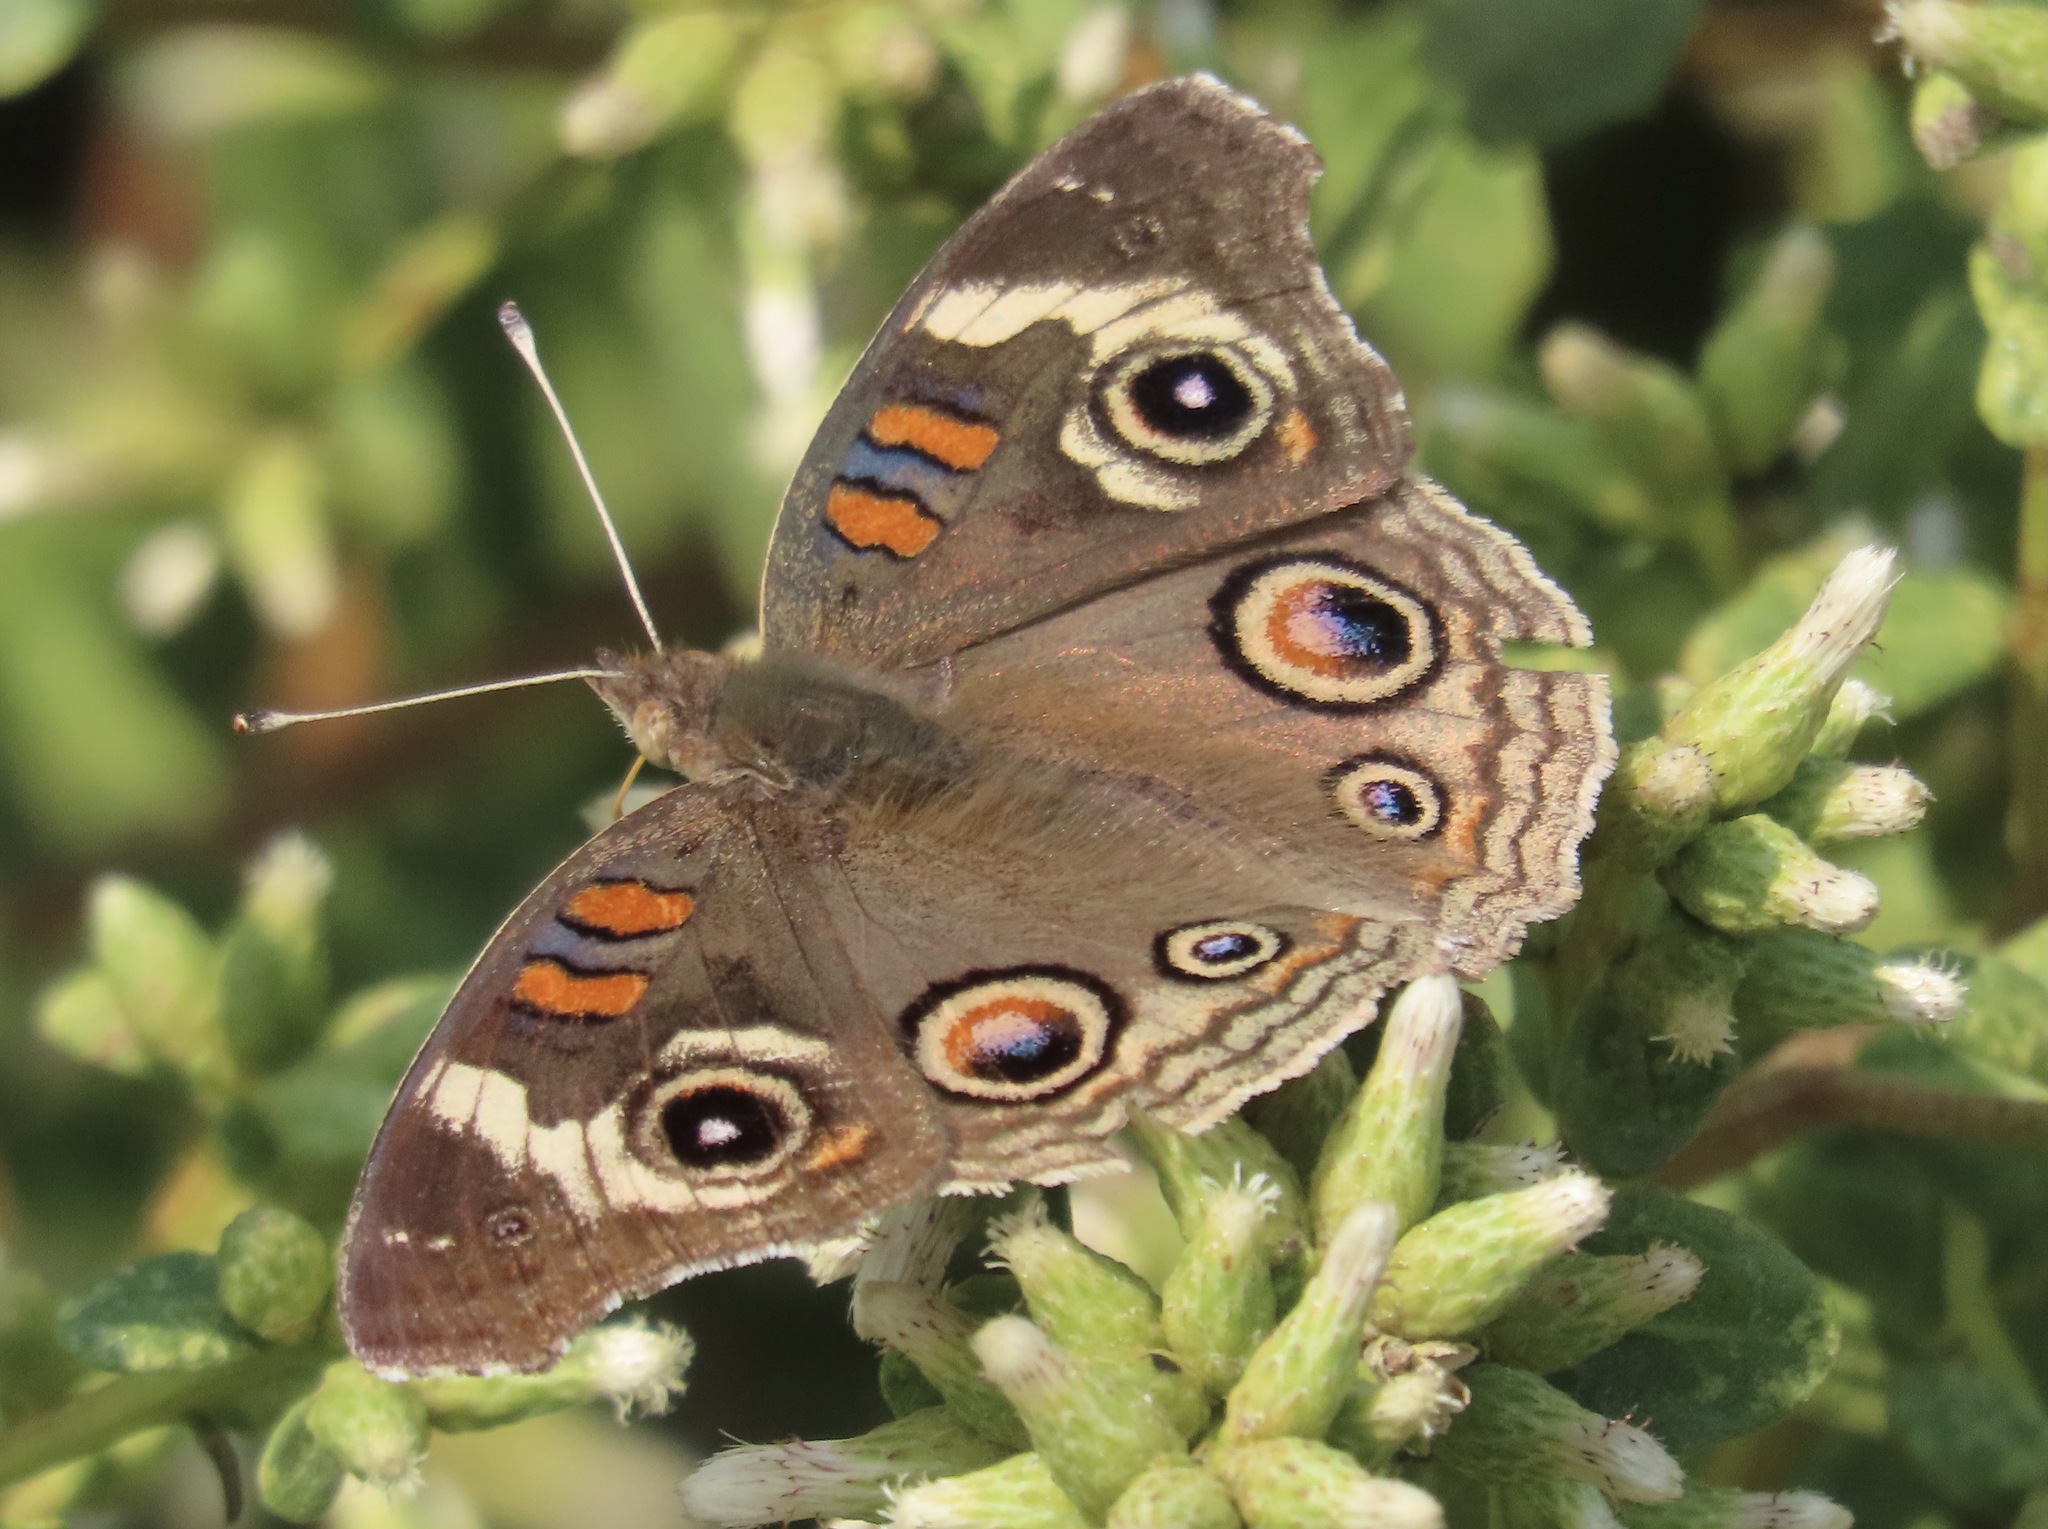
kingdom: Animalia
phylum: Arthropoda
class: Insecta
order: Lepidoptera
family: Nymphalidae
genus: Junonia
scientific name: Junonia grisea
